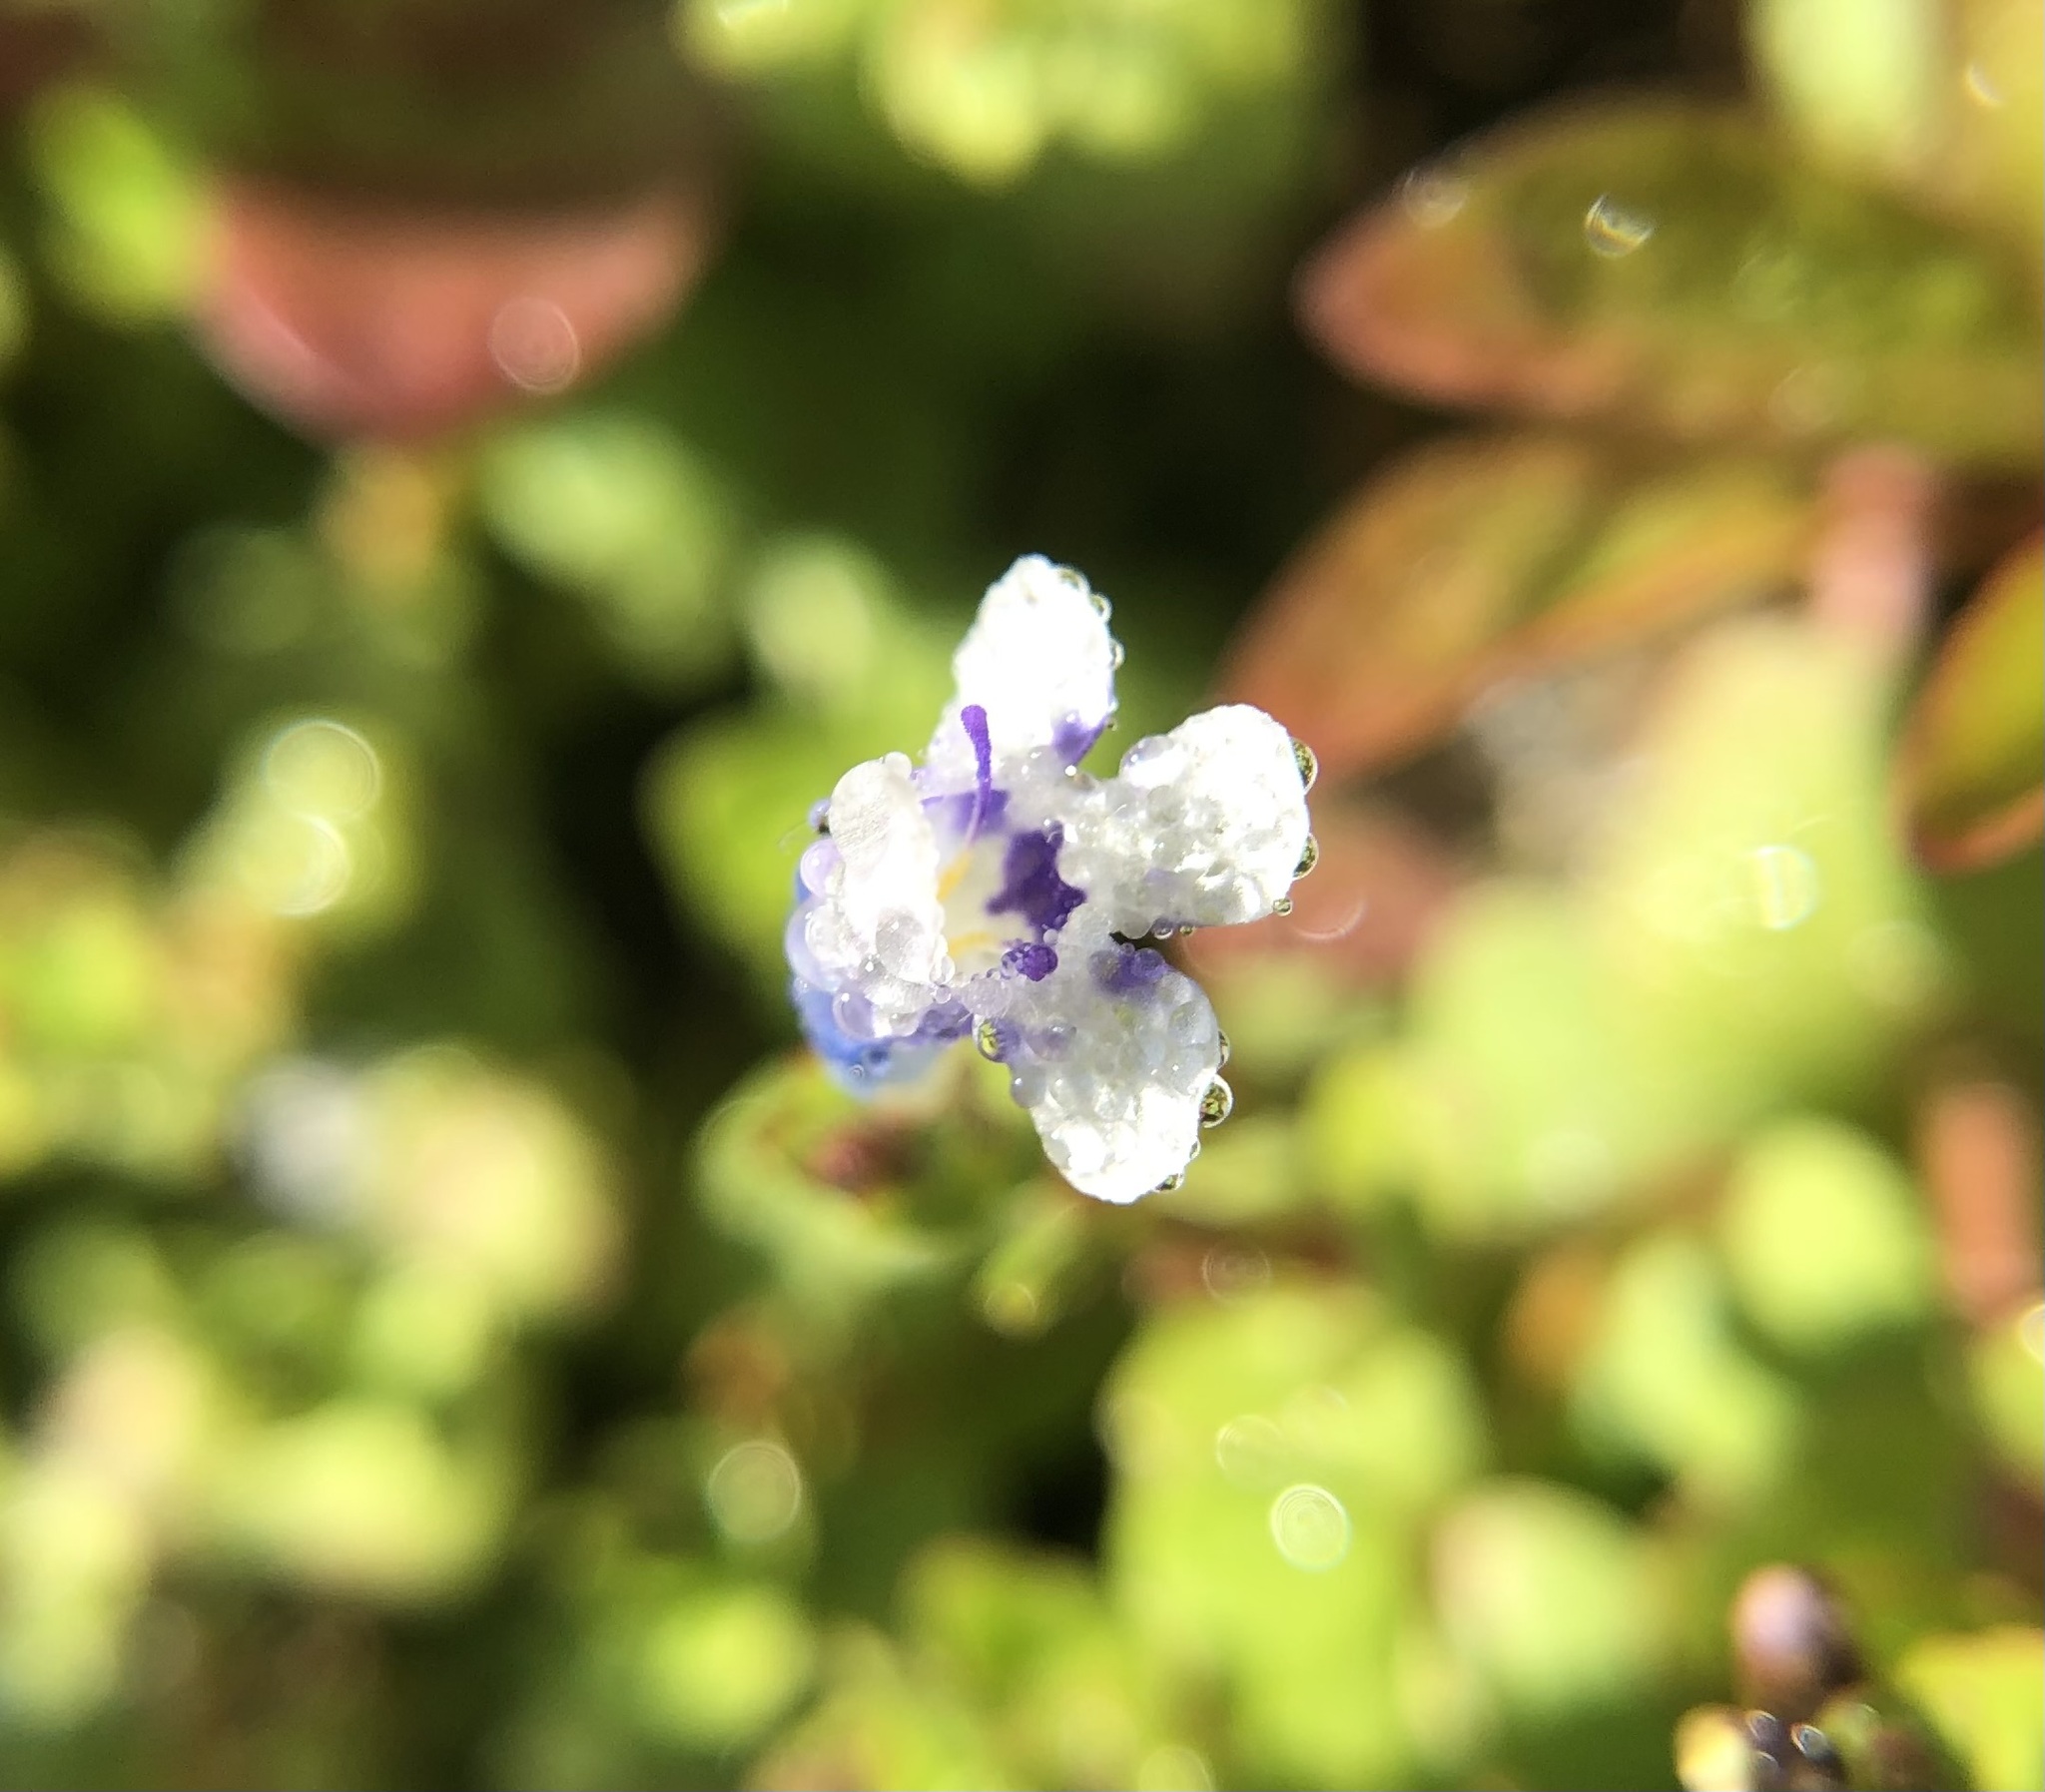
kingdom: Plantae
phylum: Tracheophyta
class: Magnoliopsida
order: Lamiales
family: Linderniaceae
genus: Lindernia
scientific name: Lindernia rotundifolia
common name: Baby’s tears
